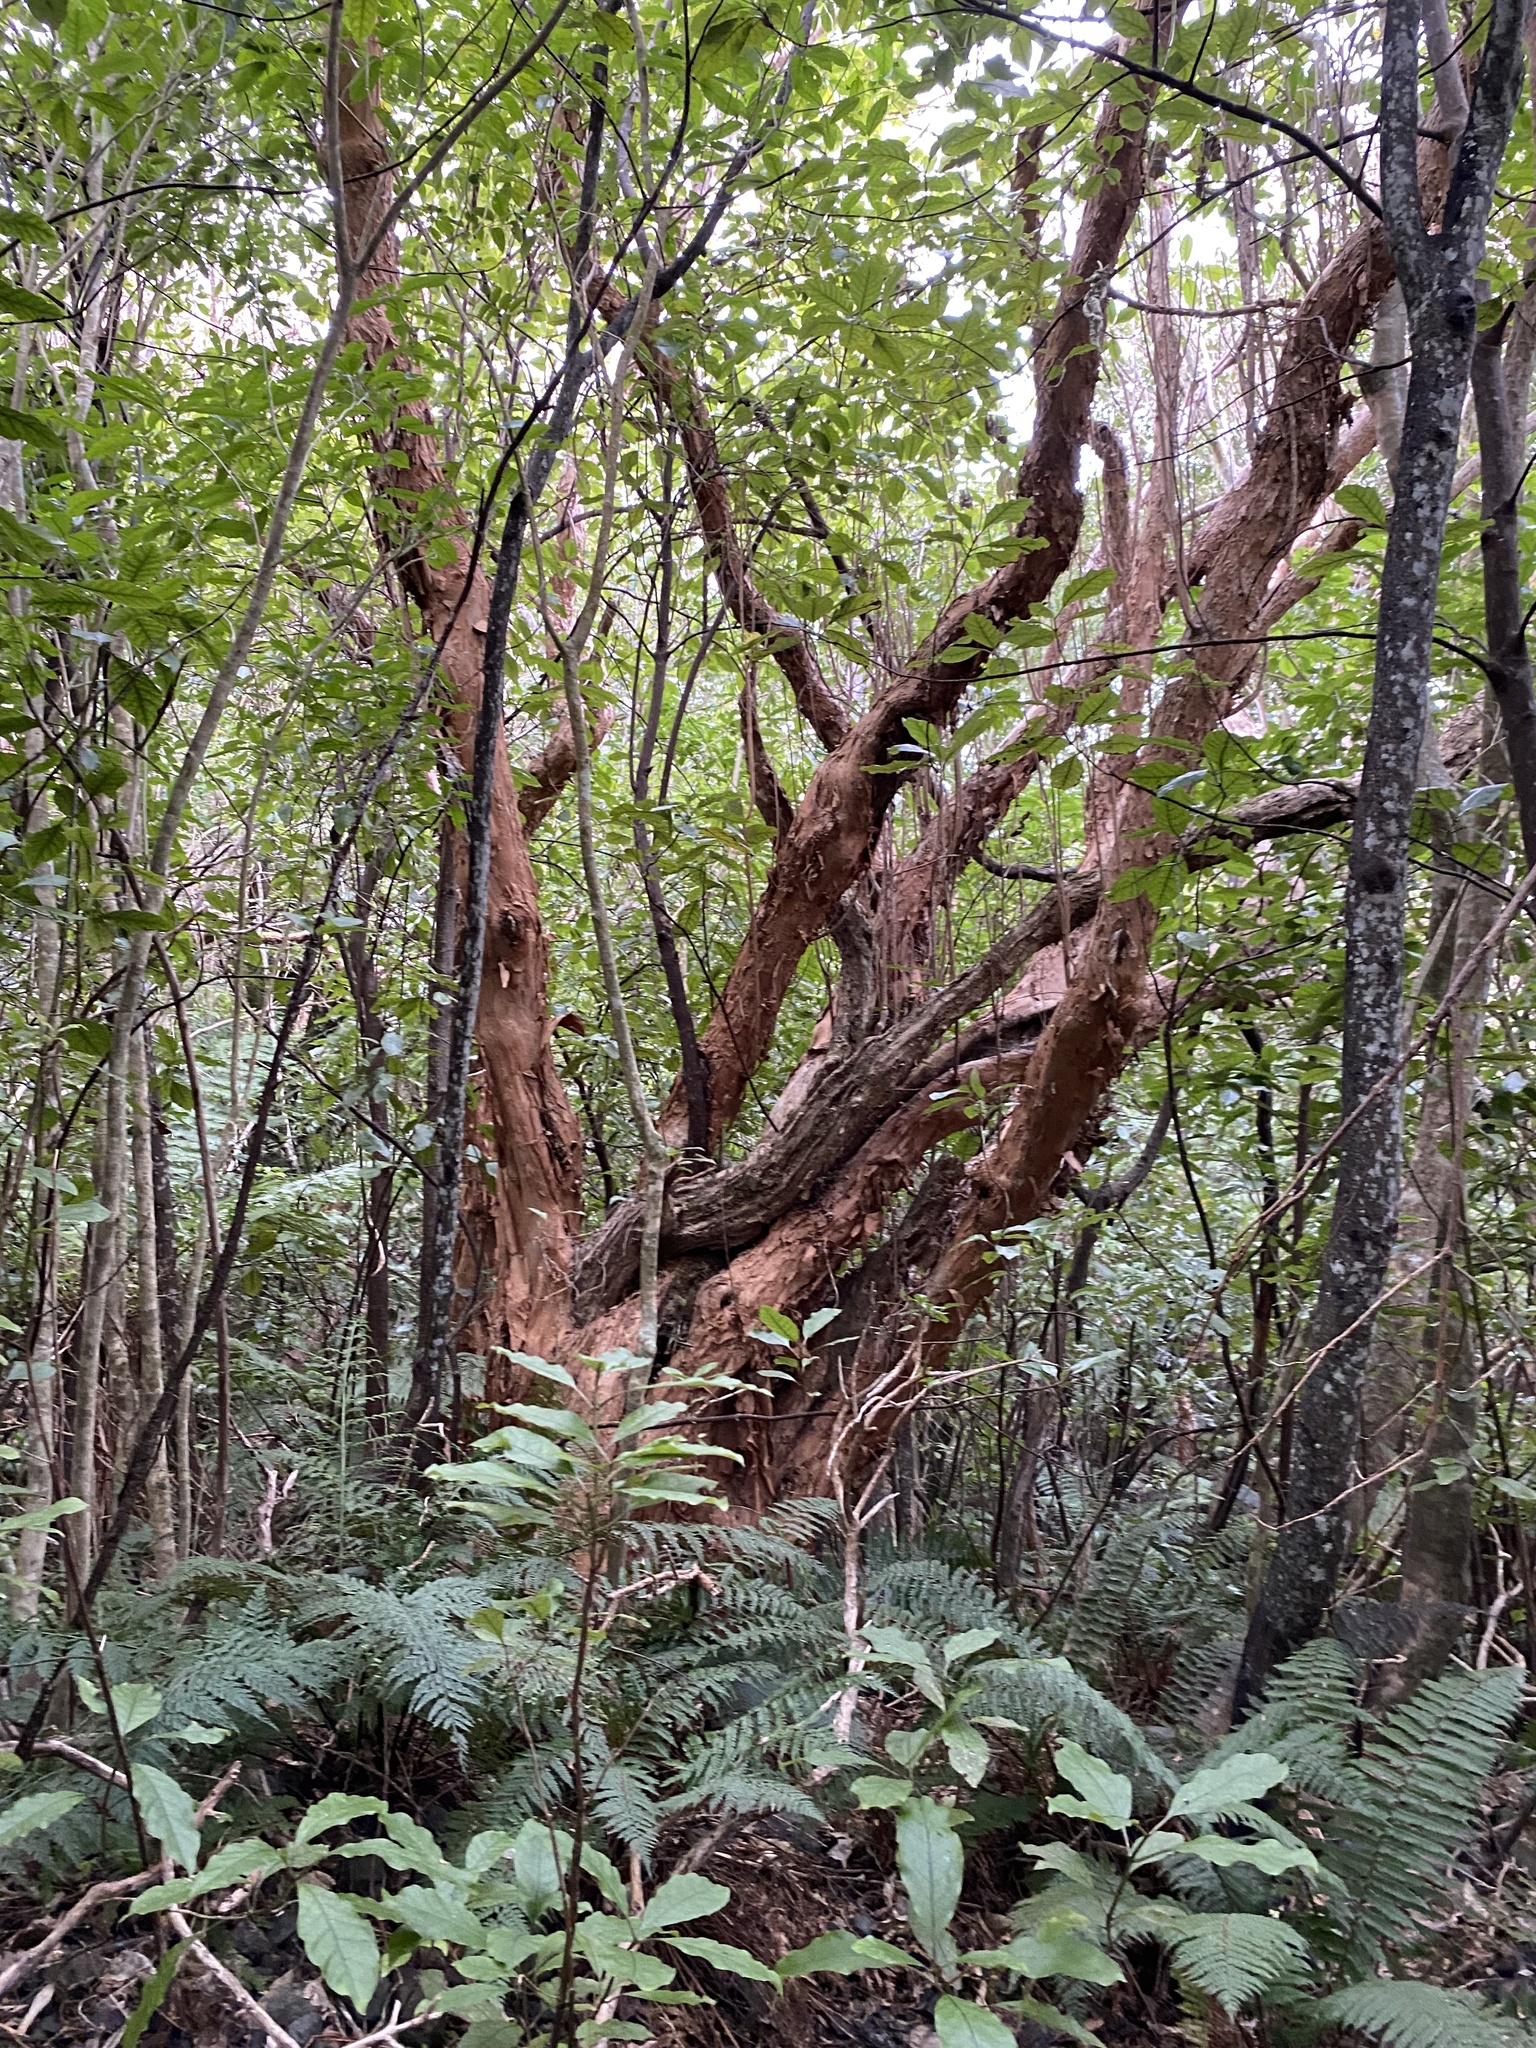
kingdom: Plantae
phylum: Tracheophyta
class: Magnoliopsida
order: Myrtales
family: Onagraceae
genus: Fuchsia
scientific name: Fuchsia excorticata
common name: Tree fuchsia
